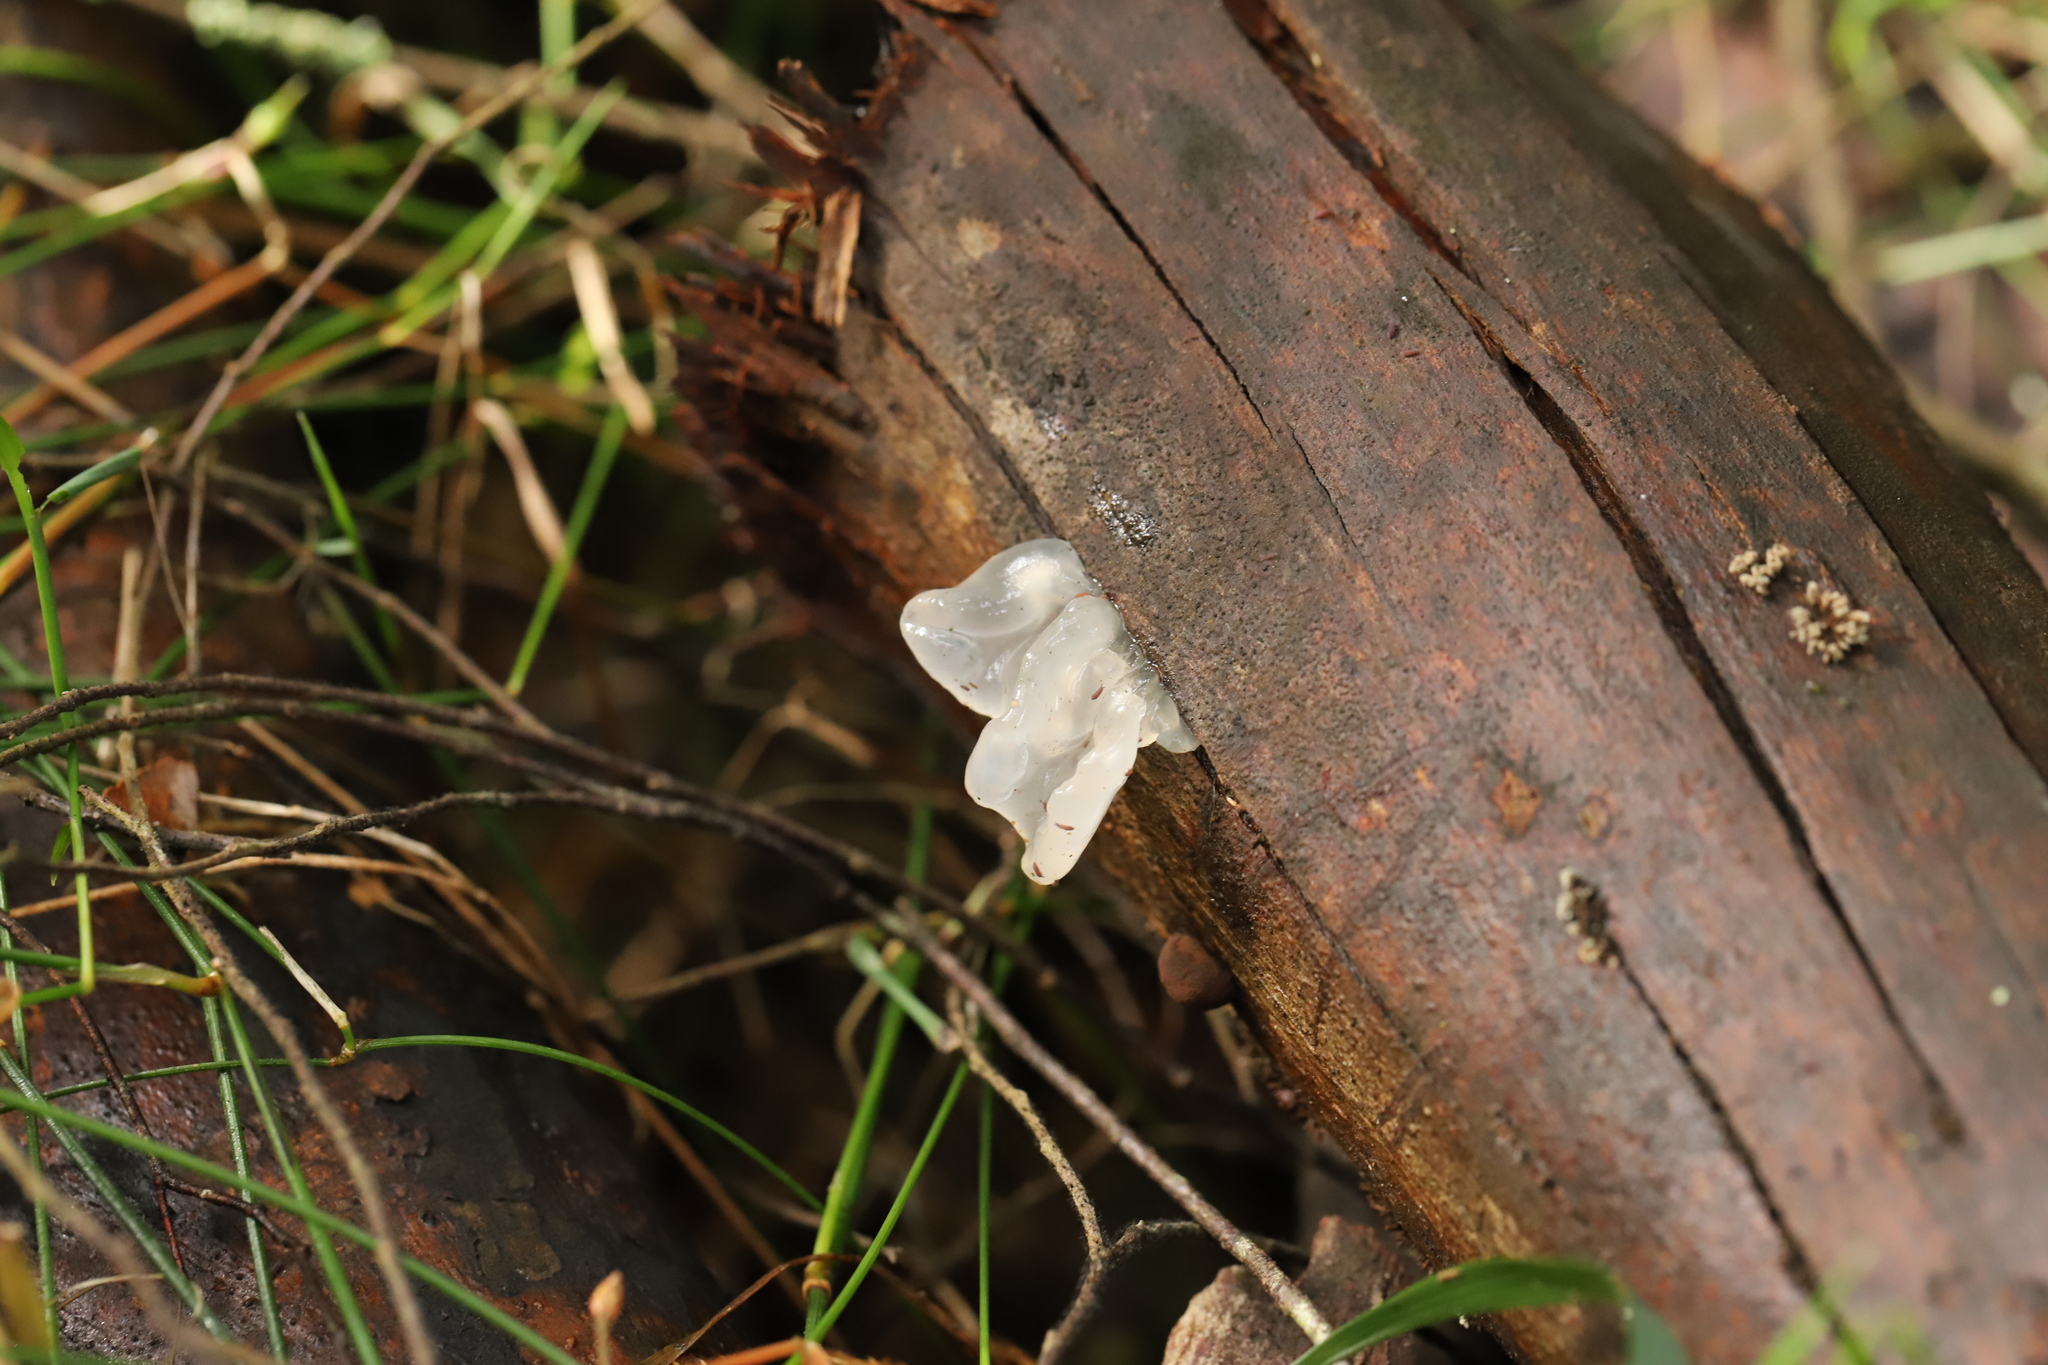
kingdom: Fungi
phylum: Basidiomycota
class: Tremellomycetes
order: Tremellales
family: Tremellaceae
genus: Tremella
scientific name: Tremella fuciformis
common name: Snow fungus
